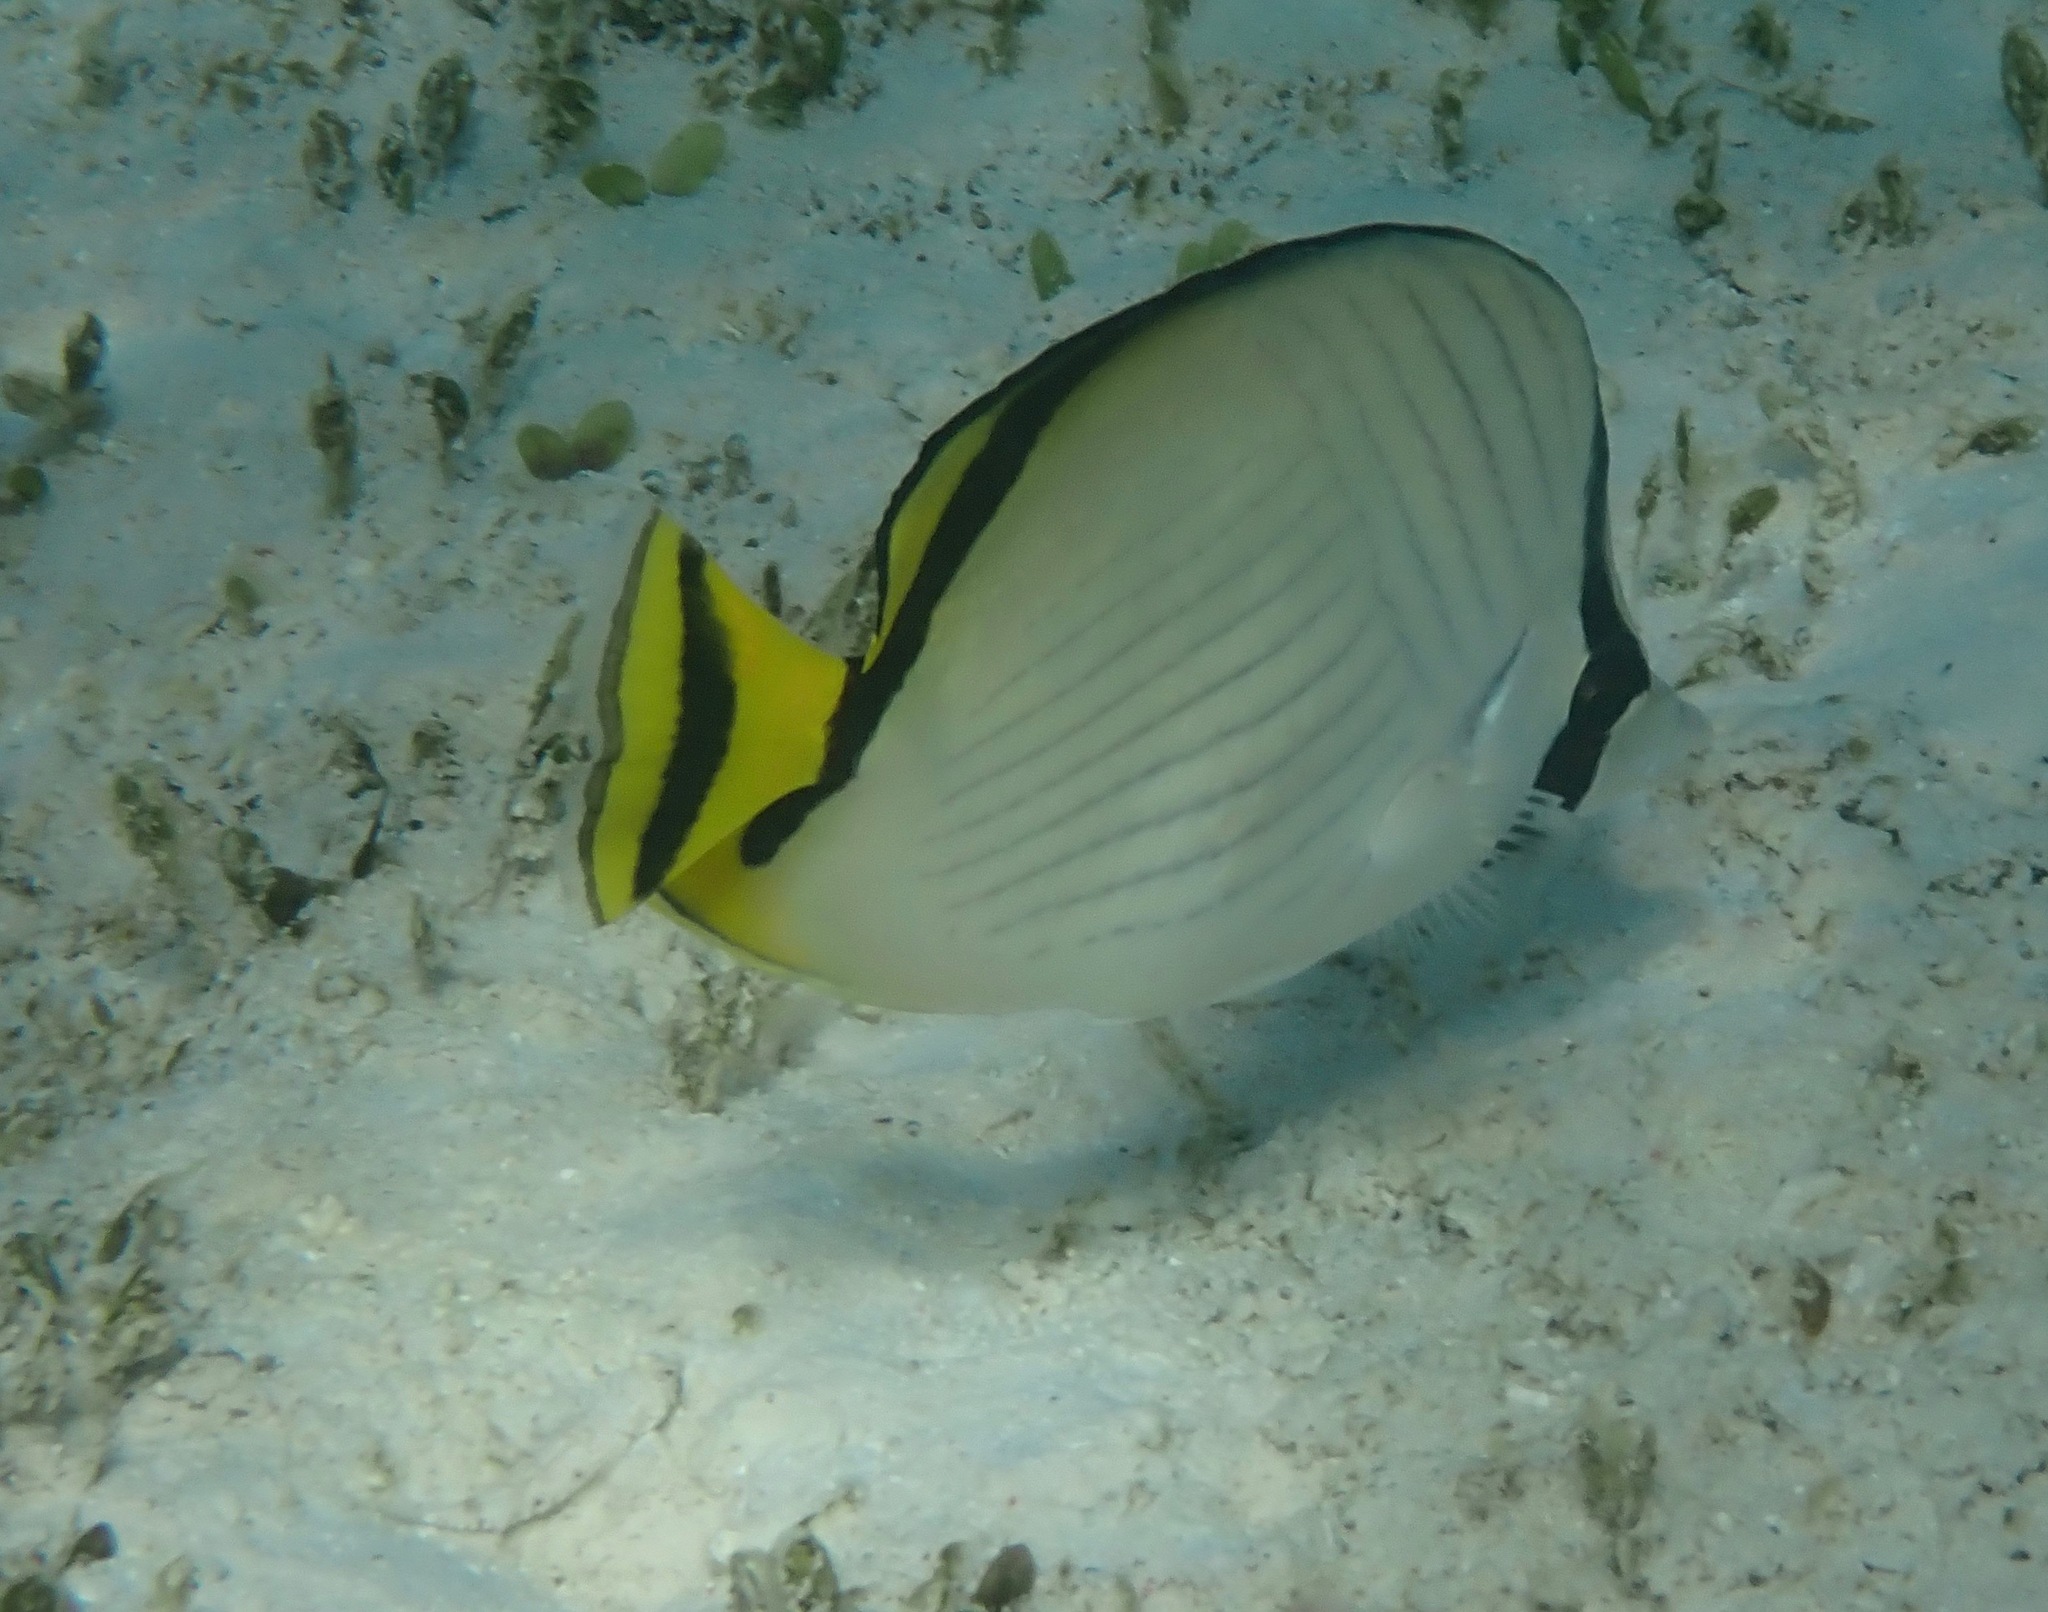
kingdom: Animalia
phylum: Chordata
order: Perciformes
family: Chaetodontidae
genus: Chaetodon
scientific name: Chaetodon vagabundus
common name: Vagabond butterflyfish
